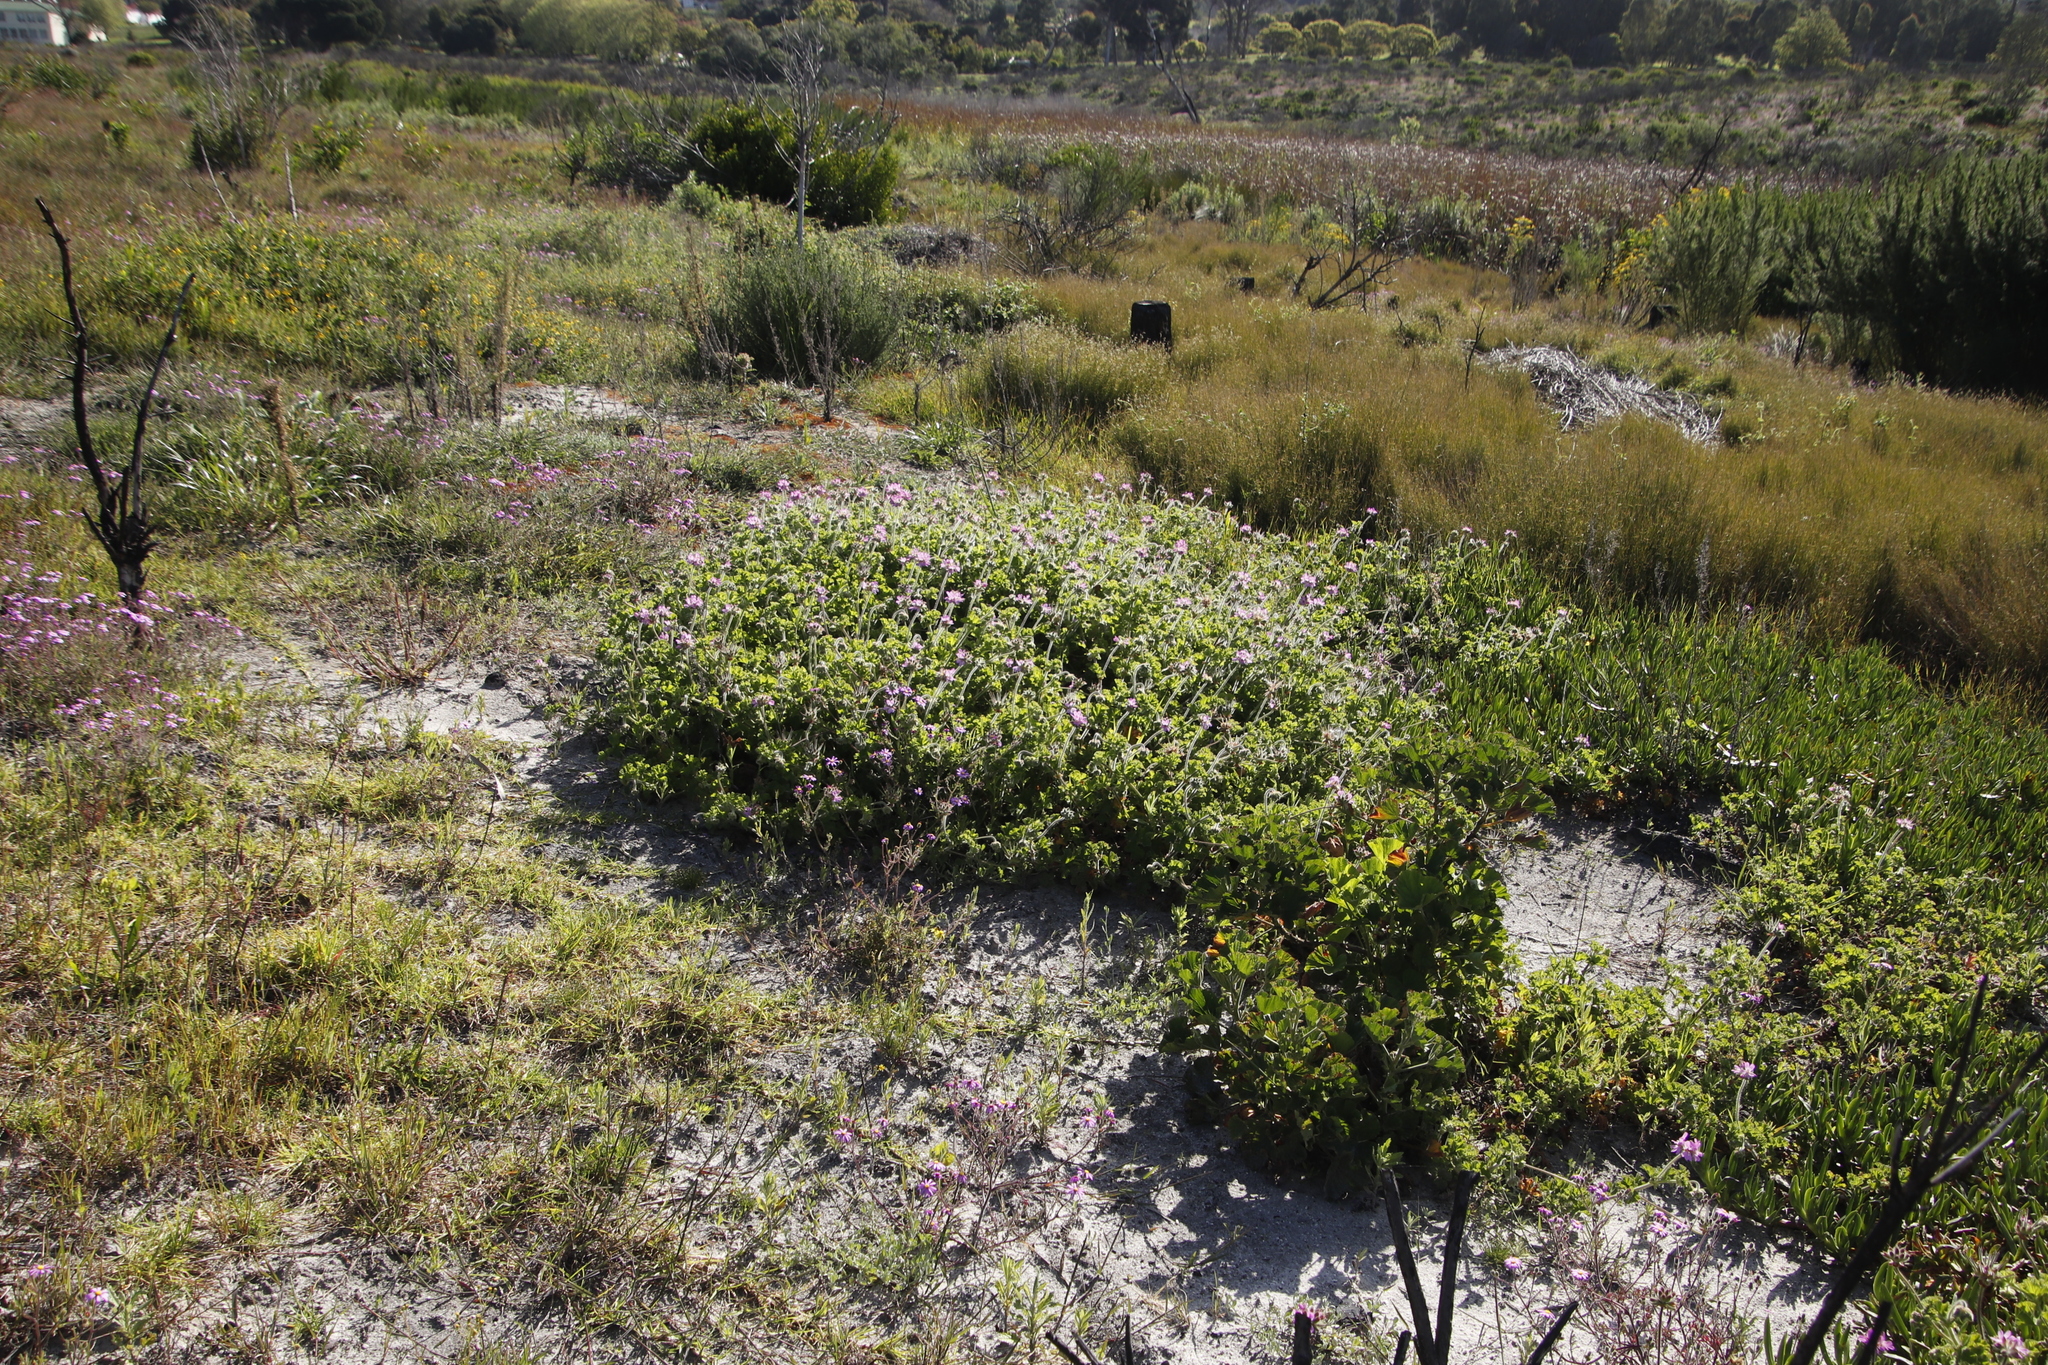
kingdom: Plantae
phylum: Tracheophyta
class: Magnoliopsida
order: Geraniales
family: Geraniaceae
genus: Pelargonium
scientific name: Pelargonium capitatum
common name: Rose scented geranium
